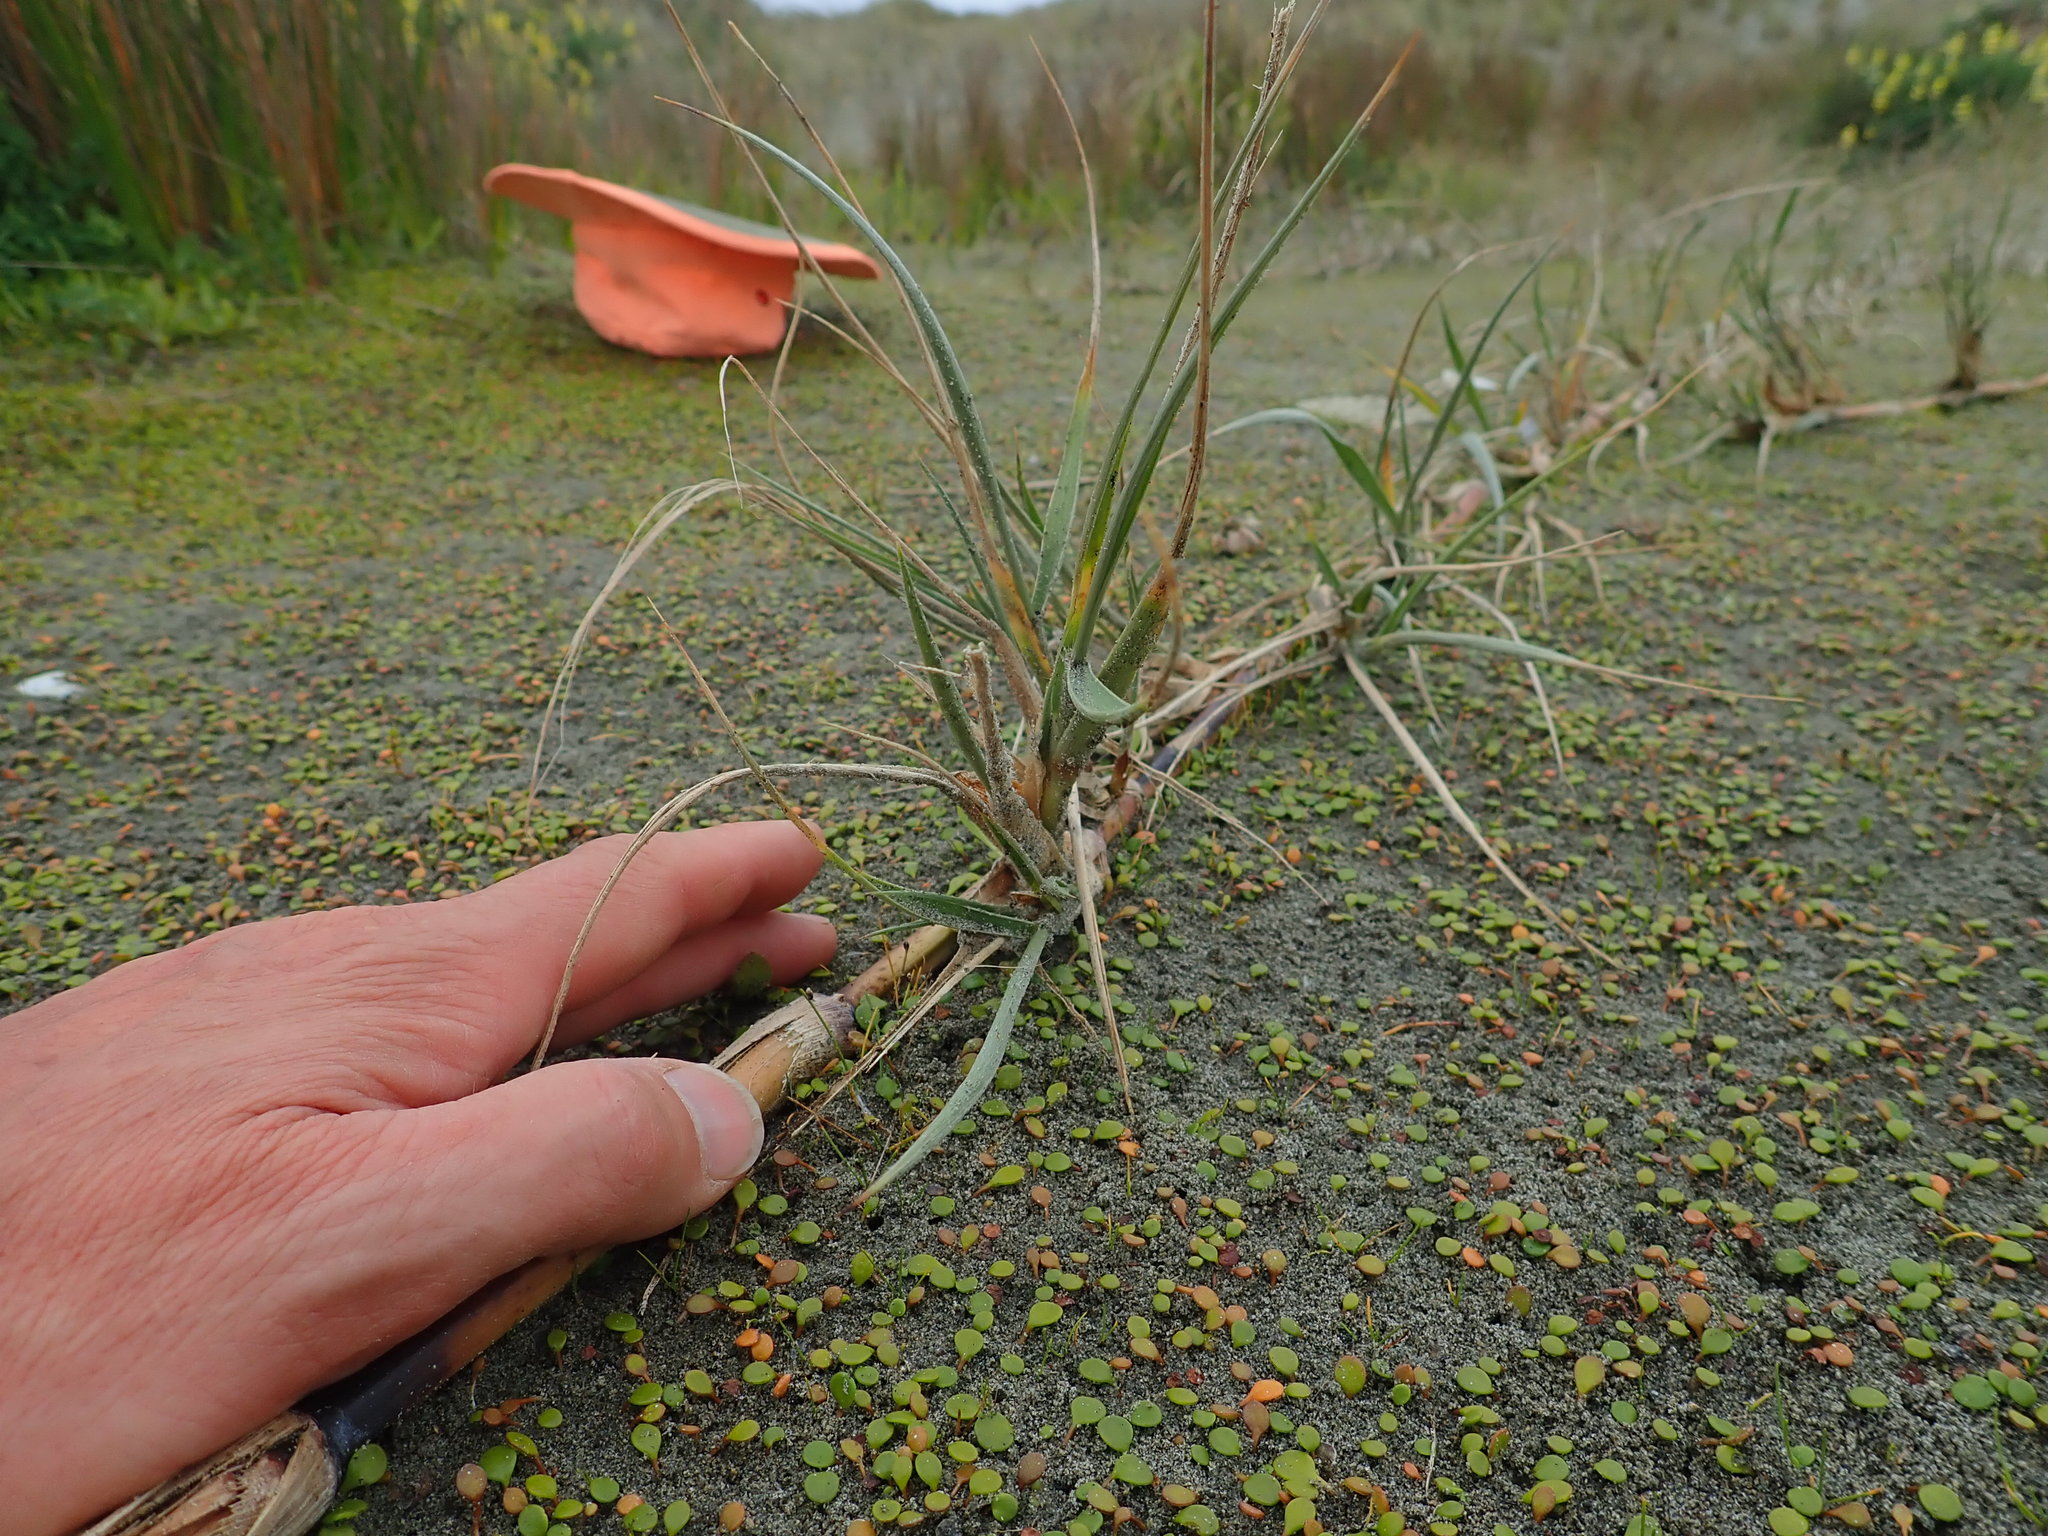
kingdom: Plantae
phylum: Tracheophyta
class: Liliopsida
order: Poales
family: Poaceae
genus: Spinifex
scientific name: Spinifex sericeus
